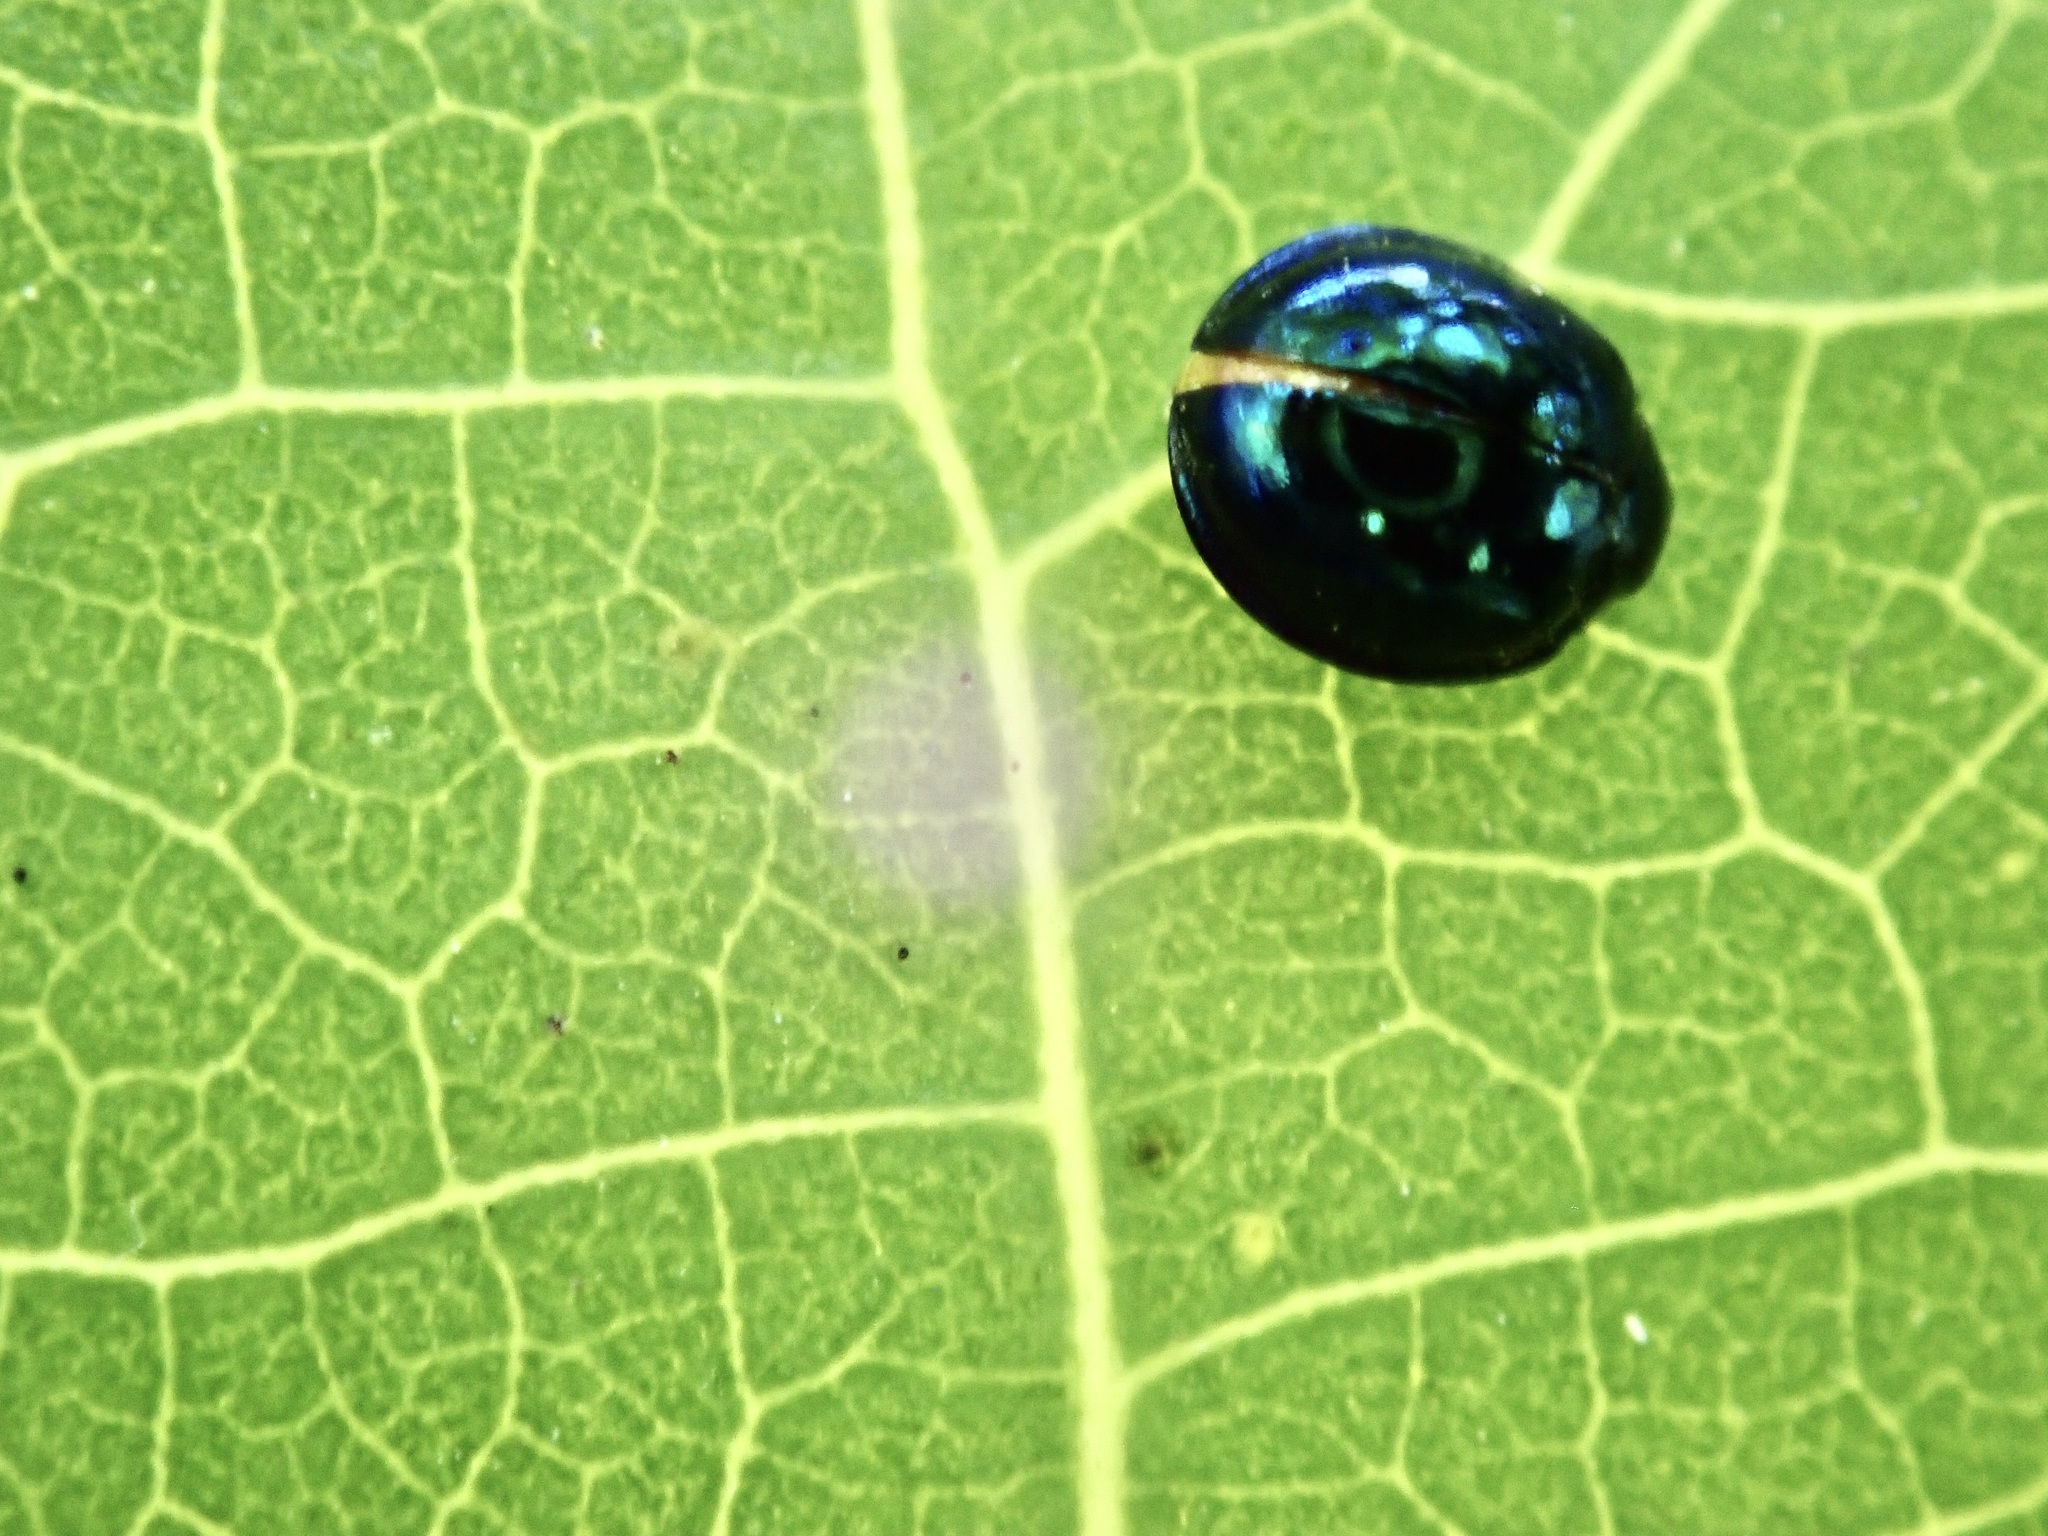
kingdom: Animalia
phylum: Arthropoda
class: Insecta
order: Coleoptera
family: Coccinellidae
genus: Halmus
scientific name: Halmus chalybeus
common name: Steel blue ladybird beetle
